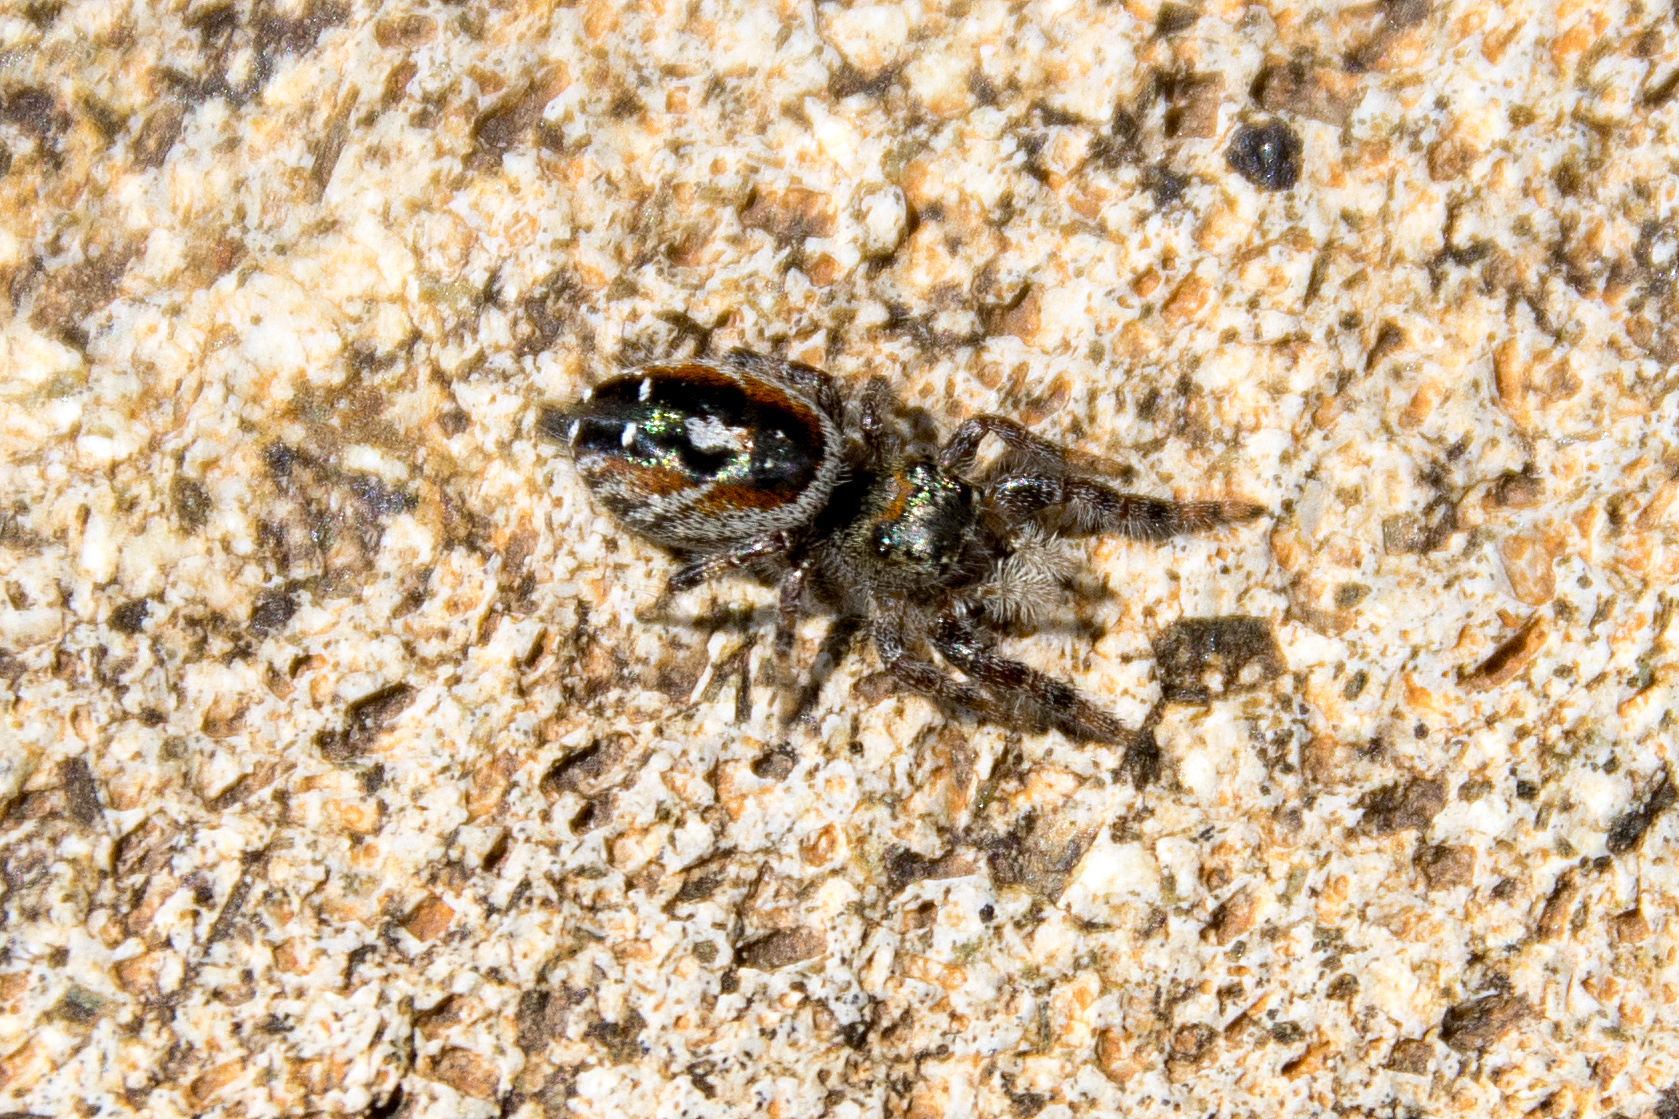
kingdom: Animalia
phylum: Arthropoda
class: Arachnida
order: Araneae
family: Salticidae
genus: Phidippus
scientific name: Phidippus carneus
